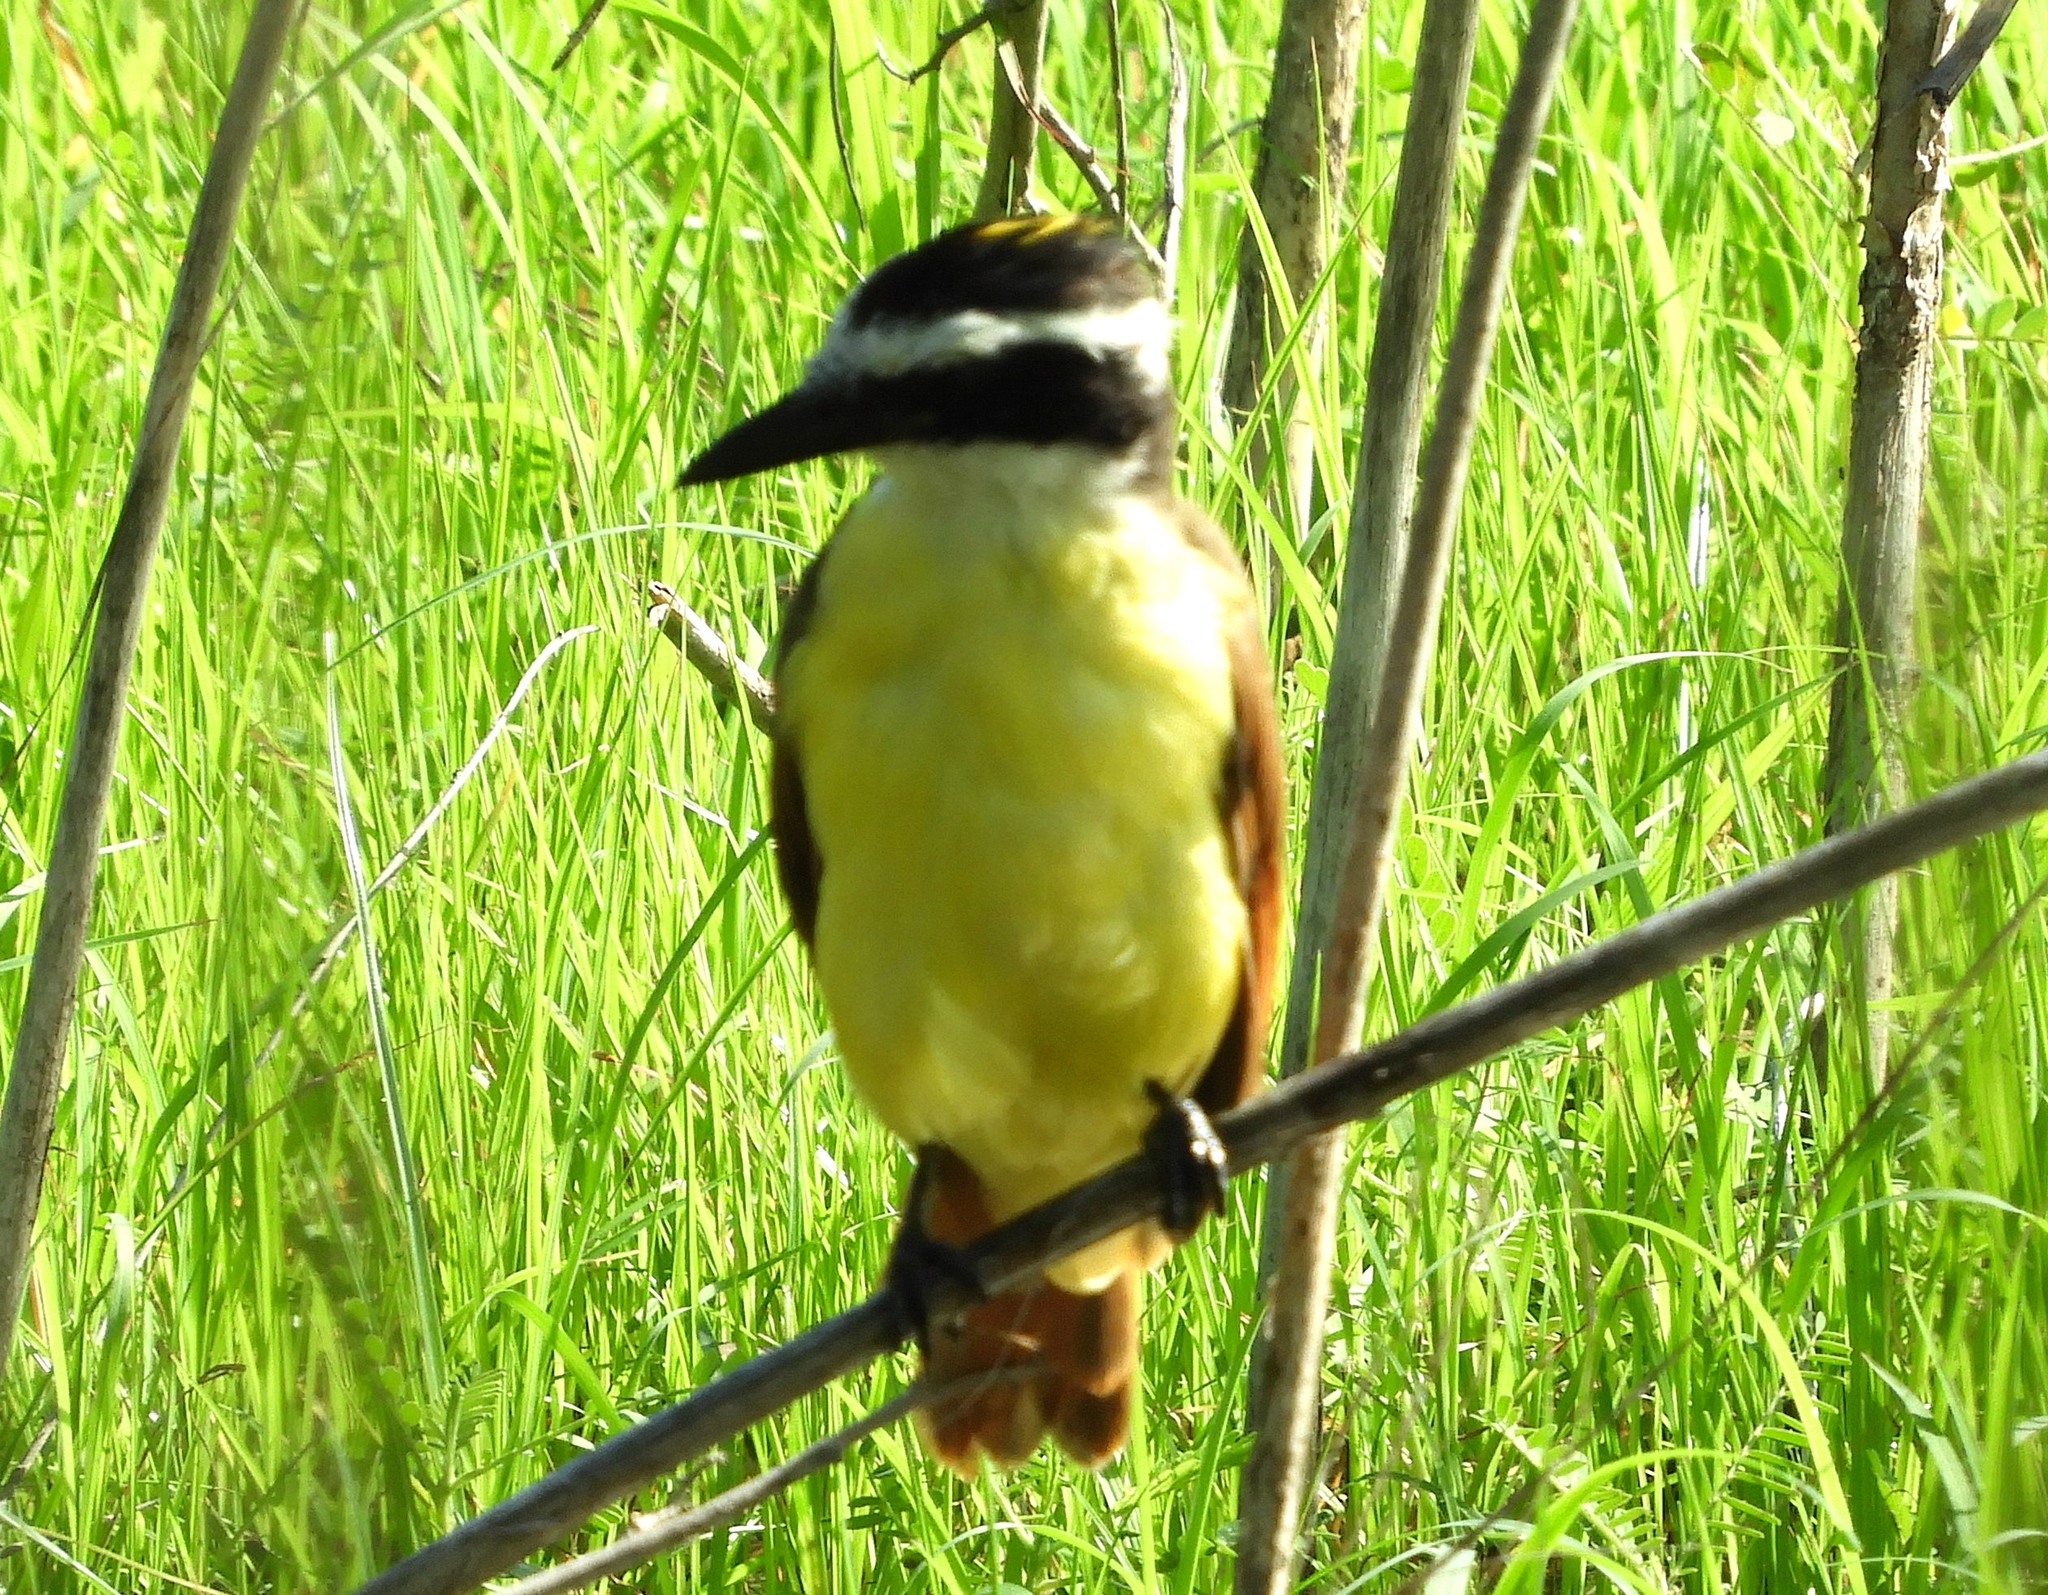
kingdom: Animalia
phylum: Chordata
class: Aves
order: Passeriformes
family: Tyrannidae
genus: Pitangus
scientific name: Pitangus sulphuratus
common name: Great kiskadee
